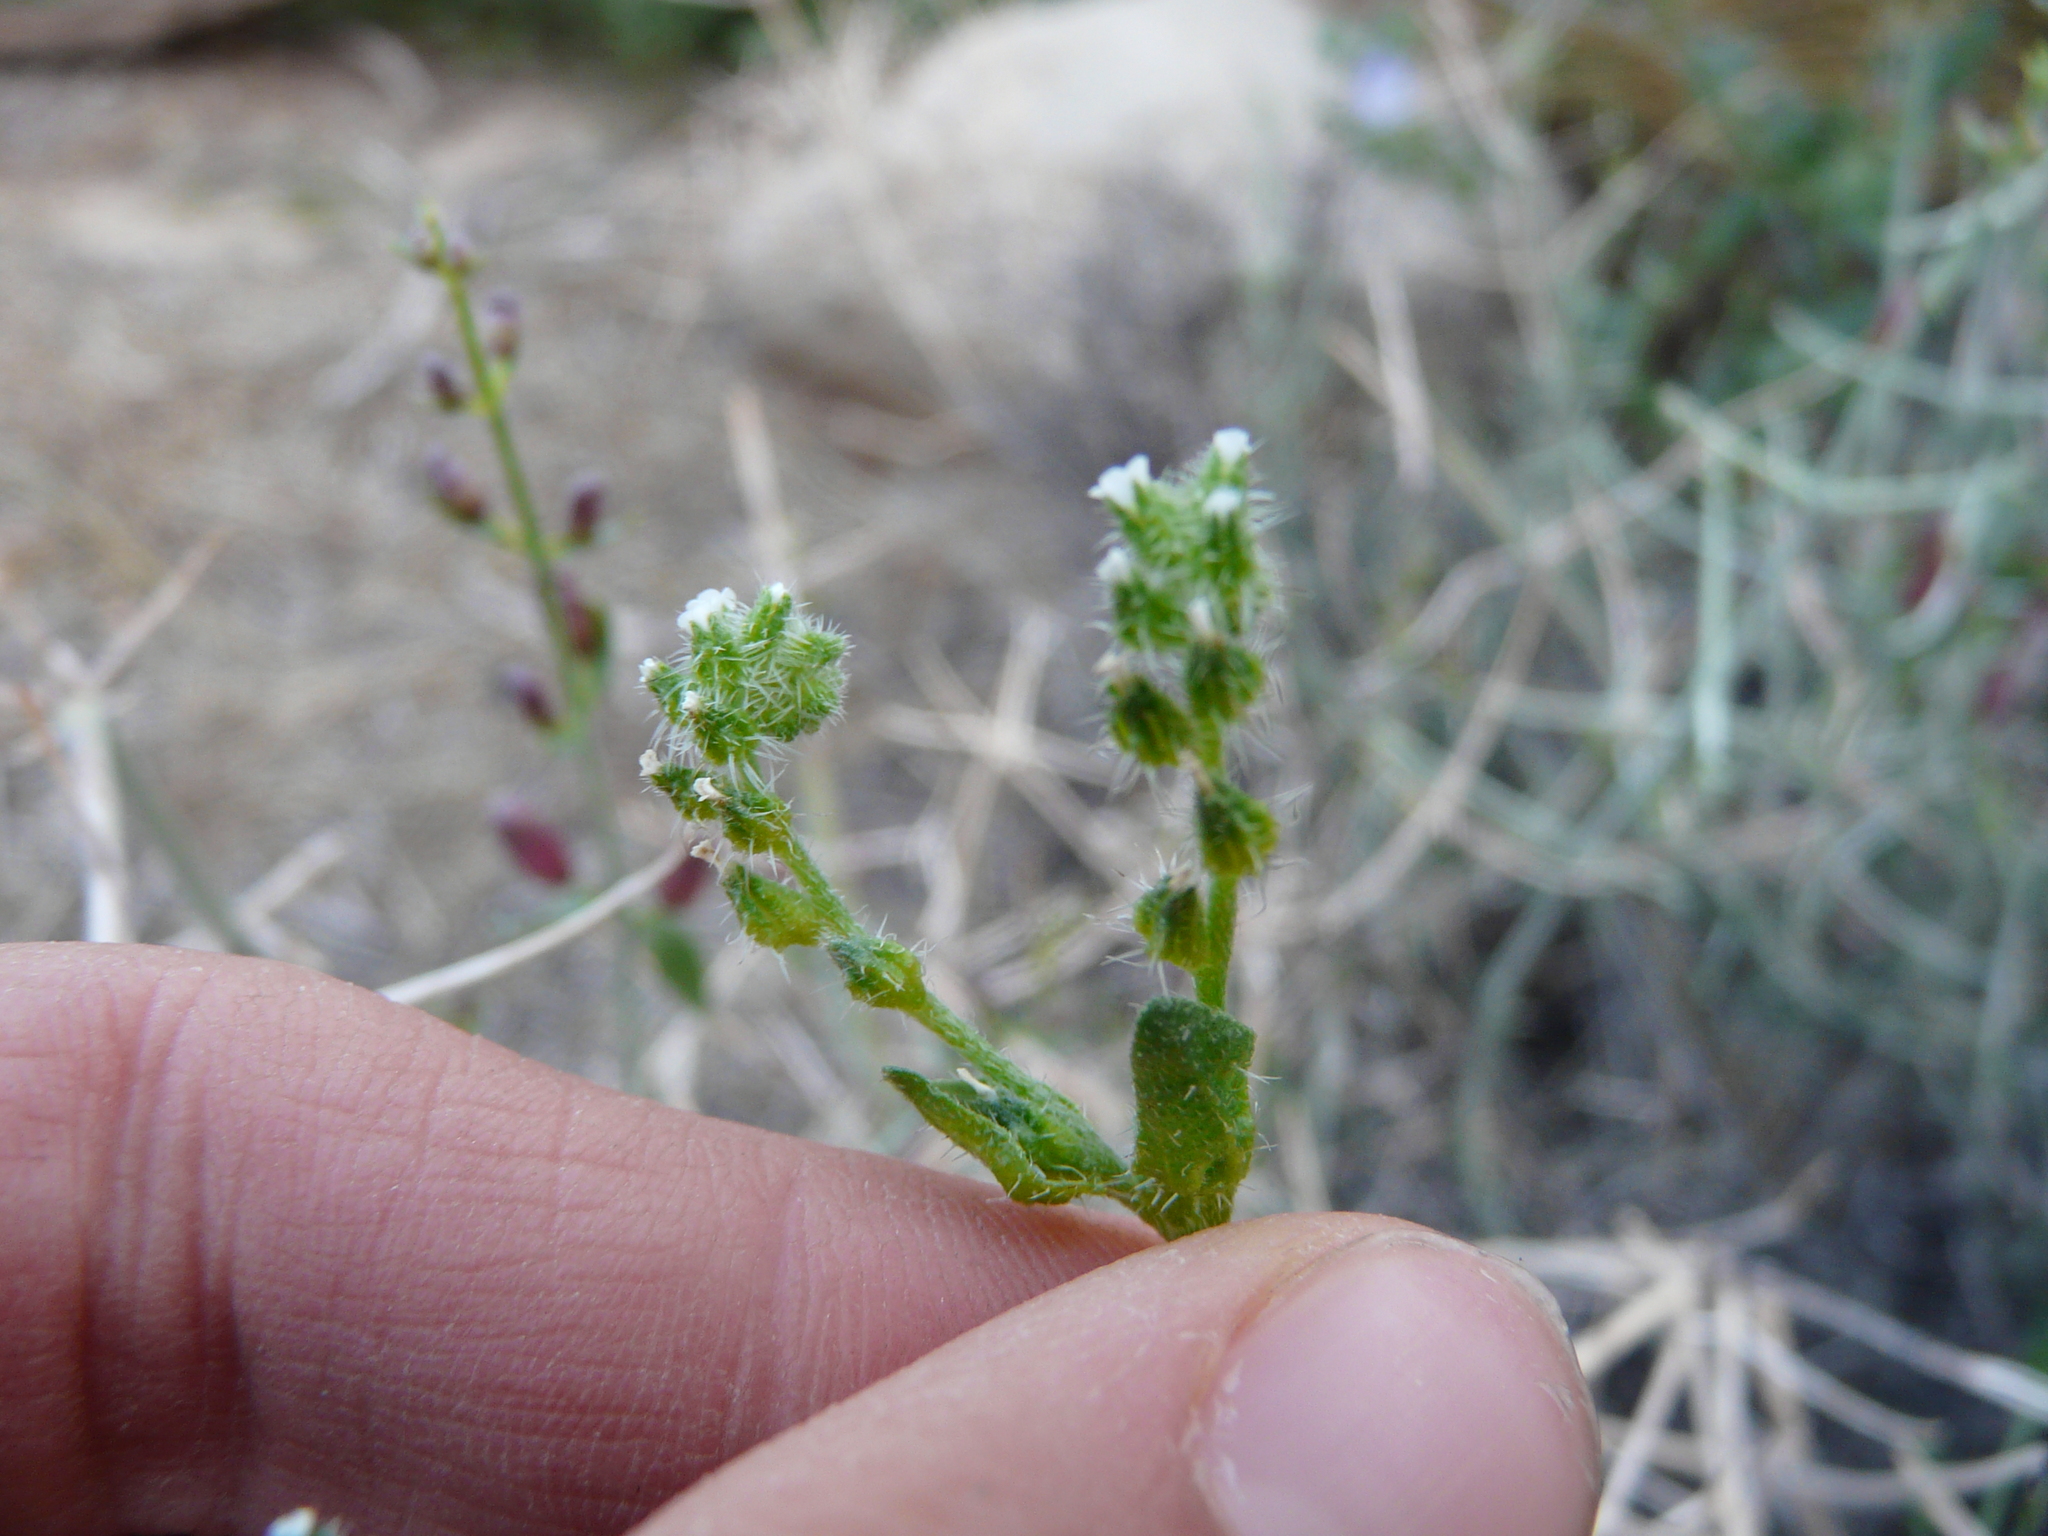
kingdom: Plantae
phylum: Tracheophyta
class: Magnoliopsida
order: Boraginales
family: Boraginaceae
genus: Cryptantha
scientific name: Cryptantha dumetorum
